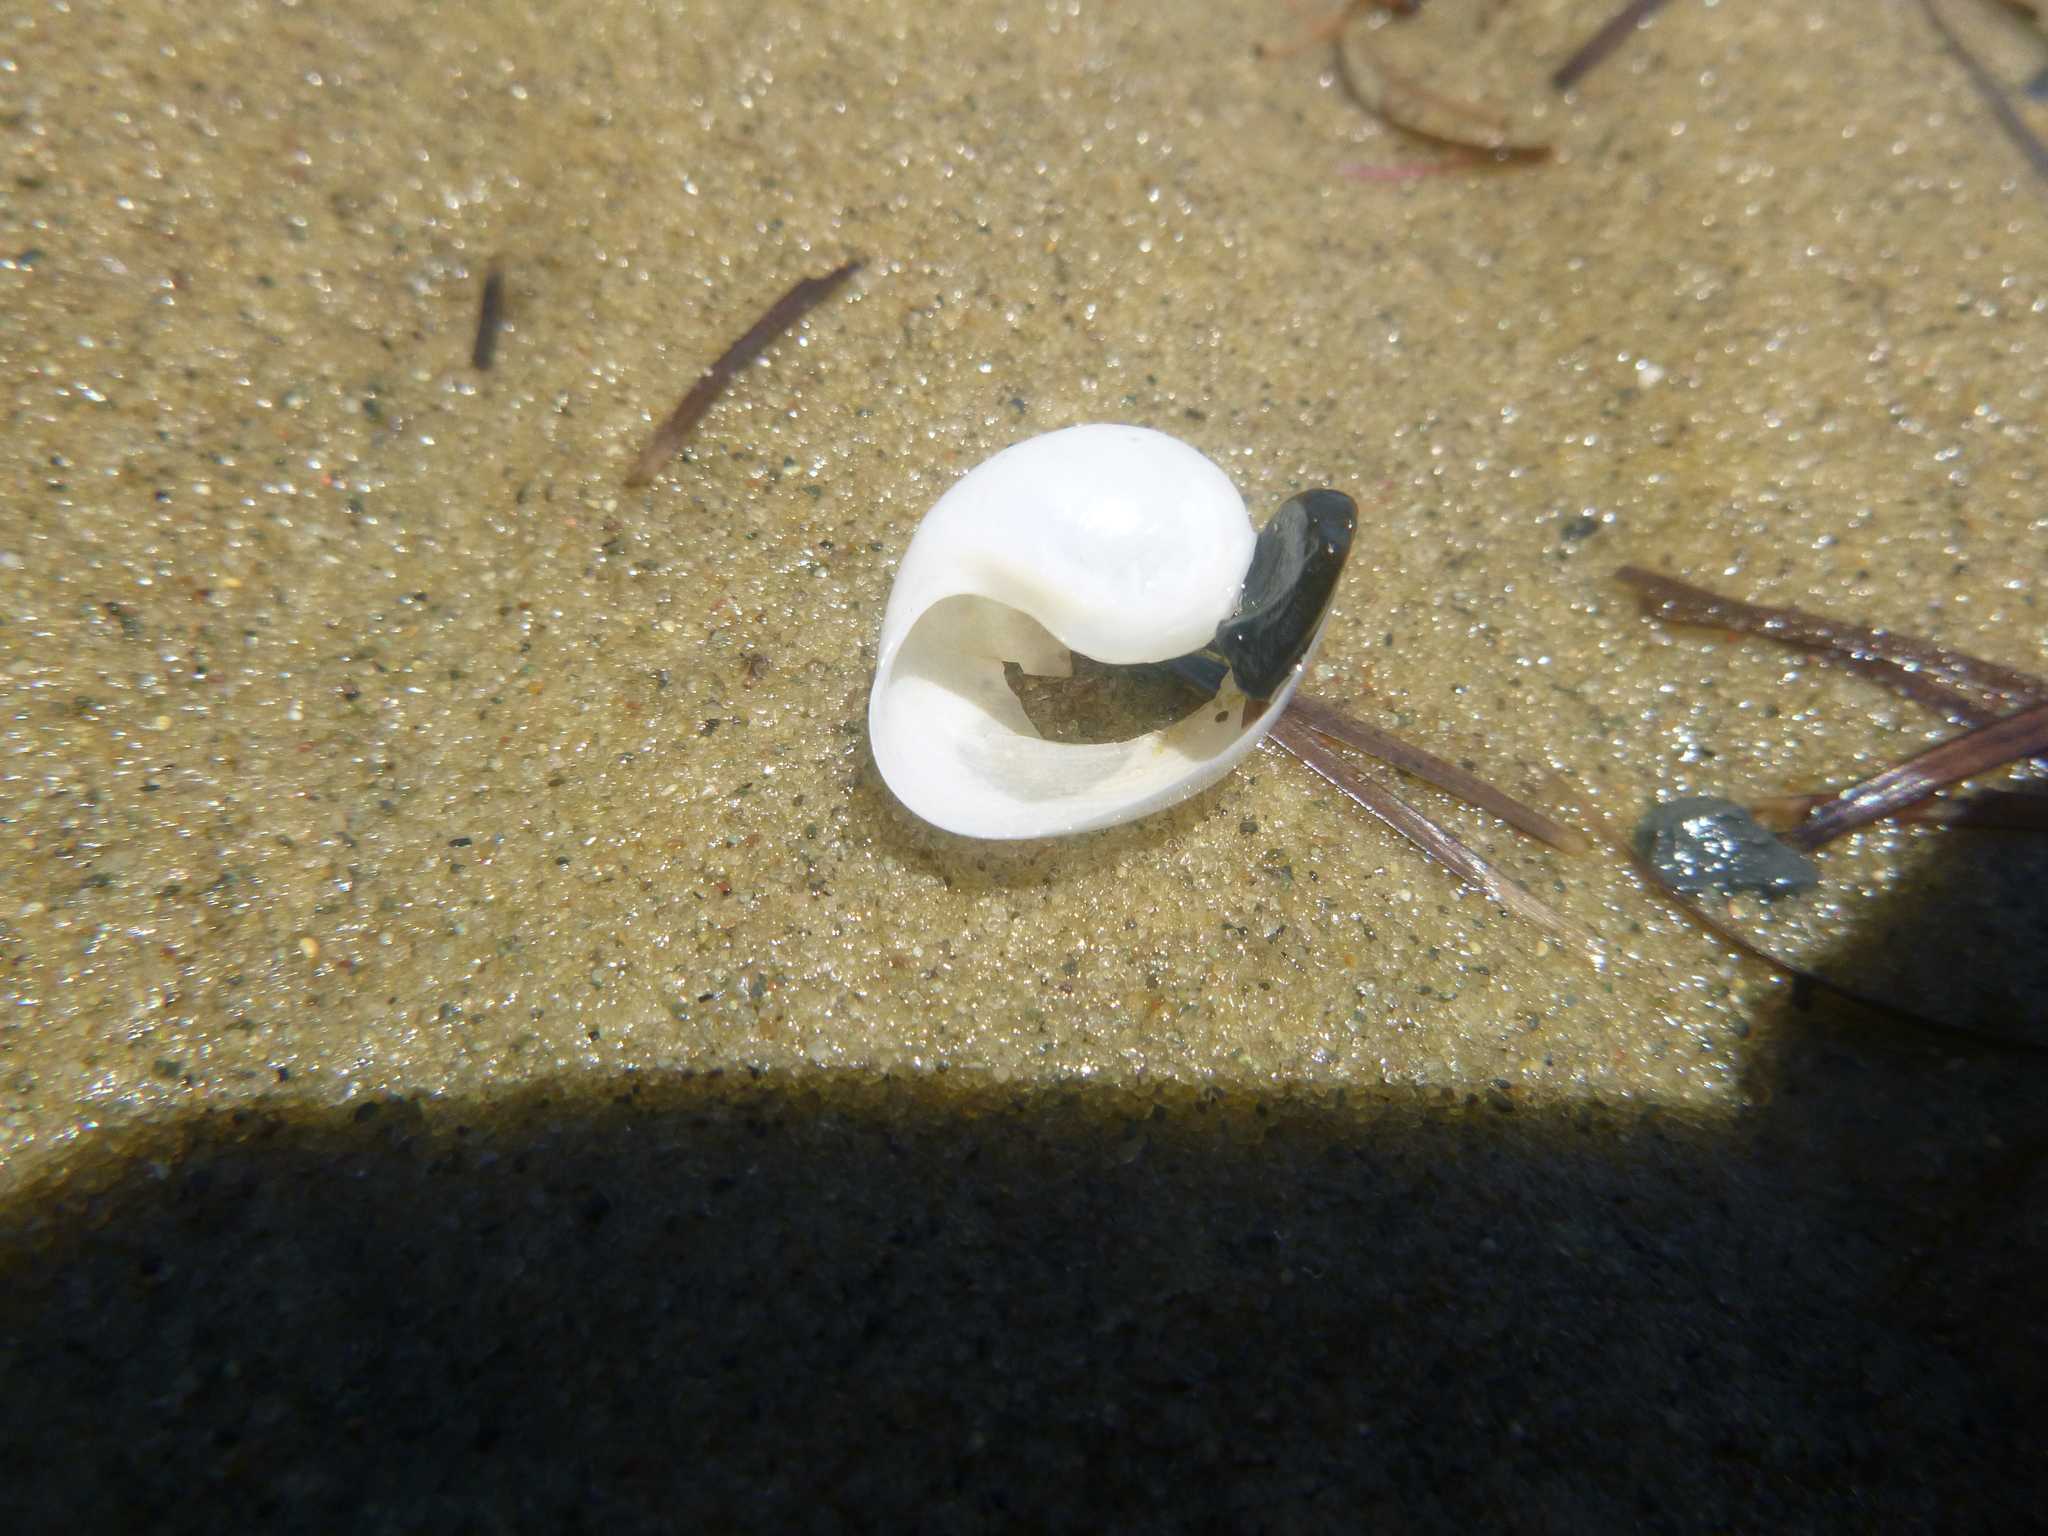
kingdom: Animalia
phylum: Mollusca
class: Gastropoda
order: Cephalaspidea
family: Haminoeidae
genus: Papawera
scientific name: Papawera zelandiae
